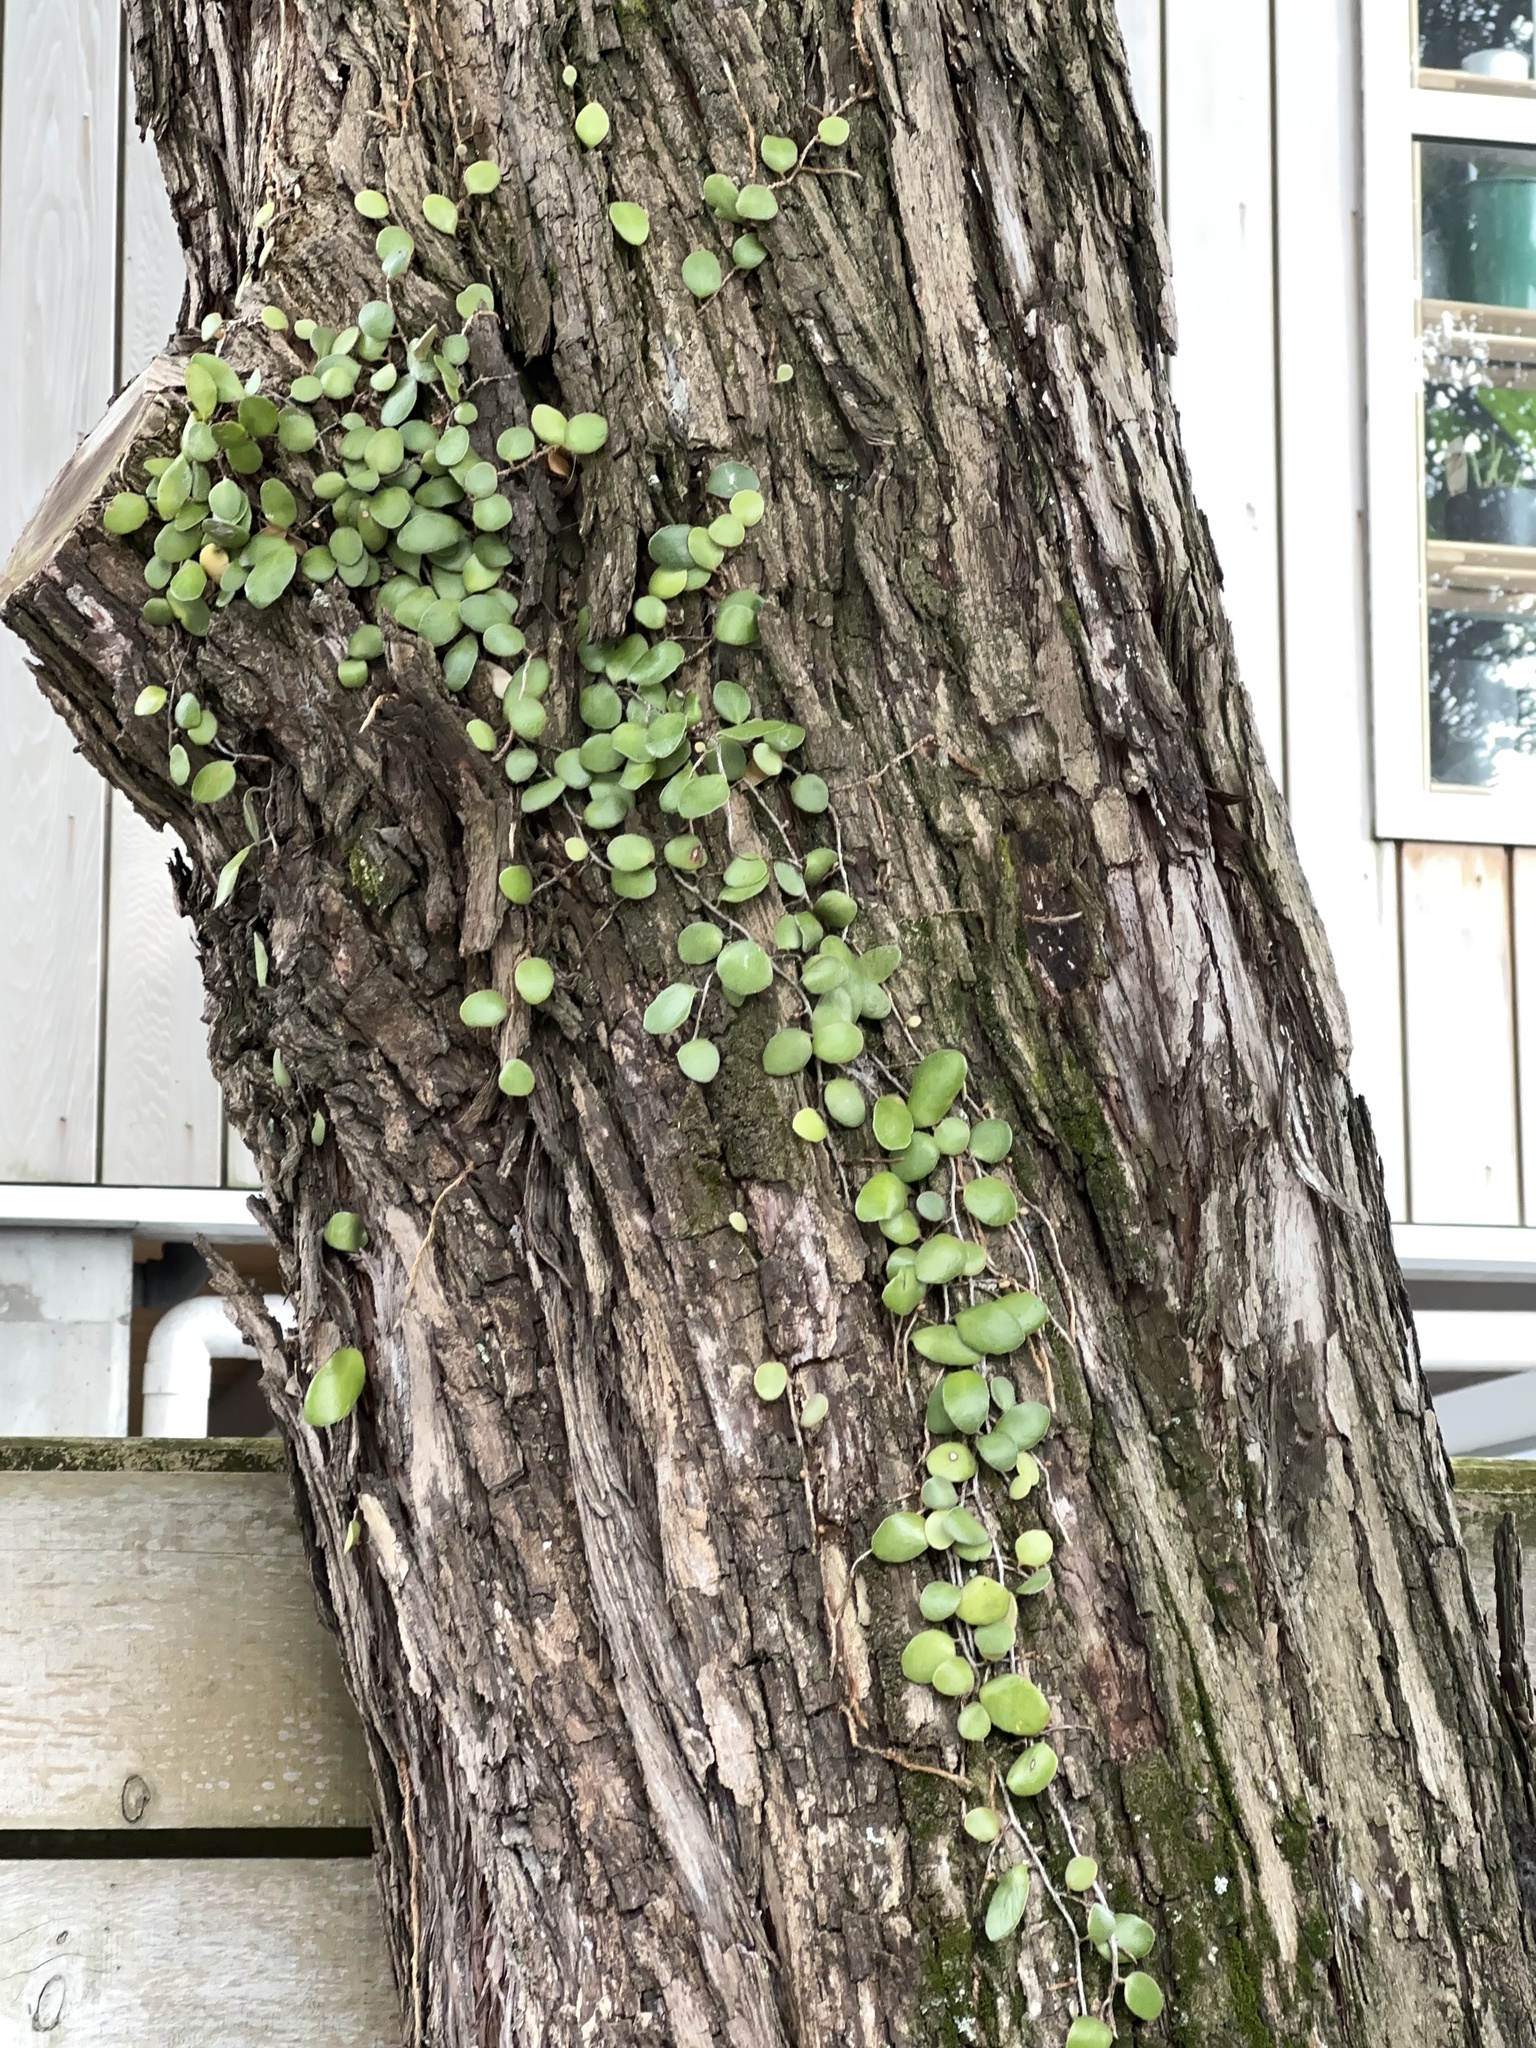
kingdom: Plantae
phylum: Tracheophyta
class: Polypodiopsida
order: Polypodiales
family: Polypodiaceae
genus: Pyrrosia
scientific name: Pyrrosia eleagnifolia
